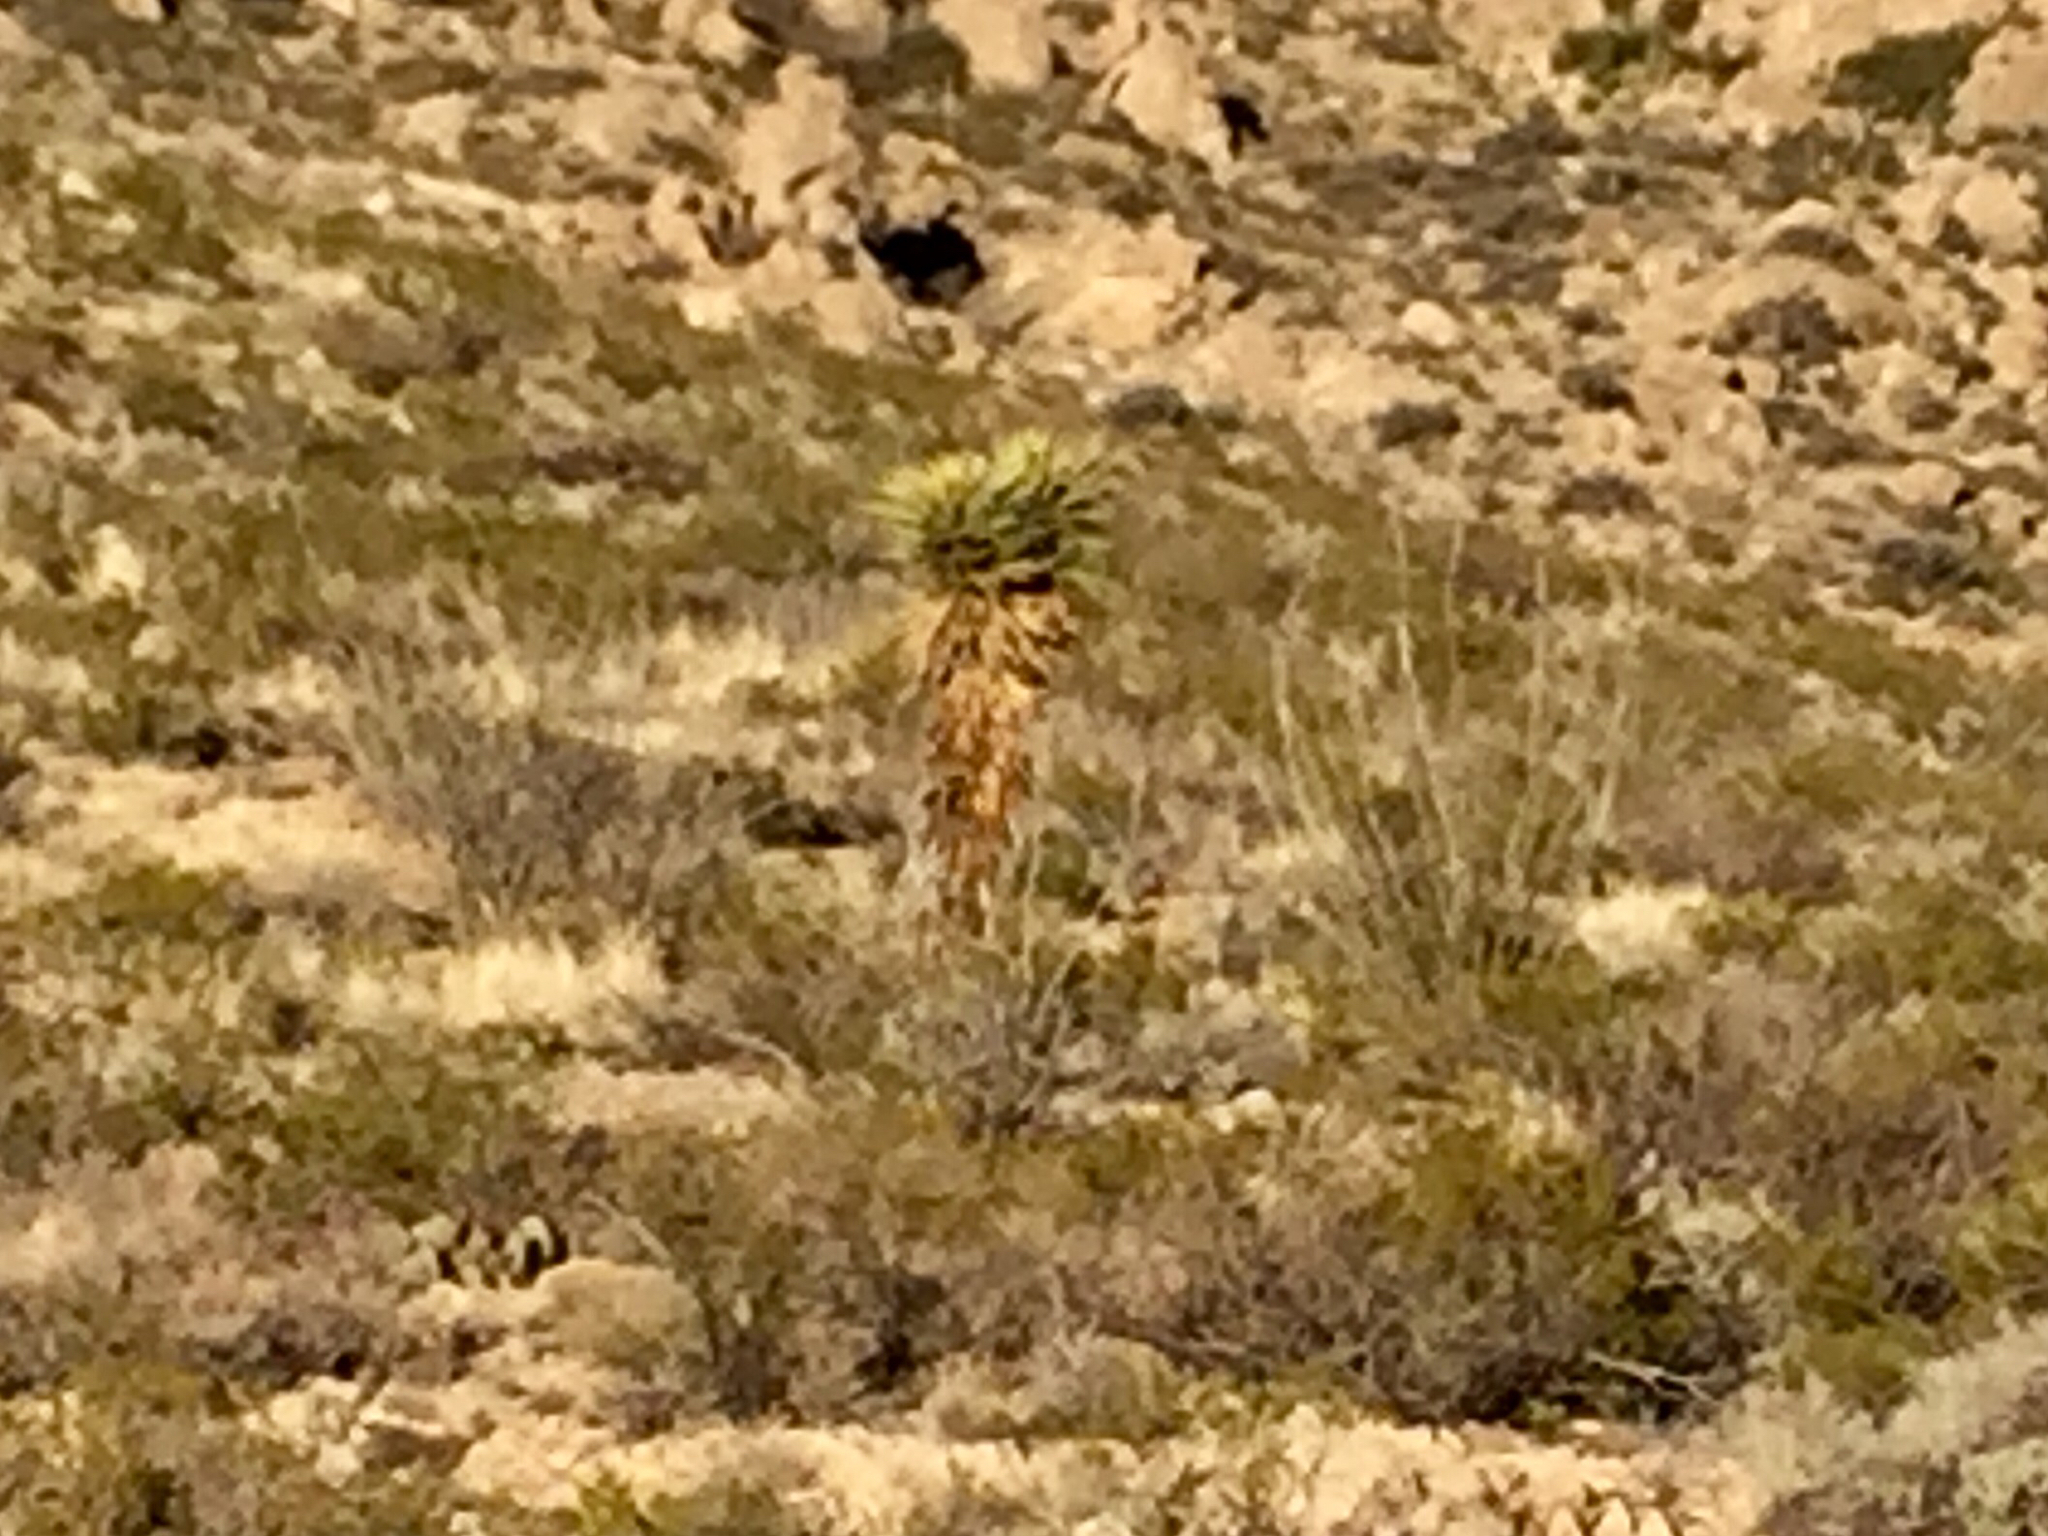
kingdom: Plantae
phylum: Tracheophyta
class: Liliopsida
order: Asparagales
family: Asparagaceae
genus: Yucca
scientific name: Yucca treculiana
